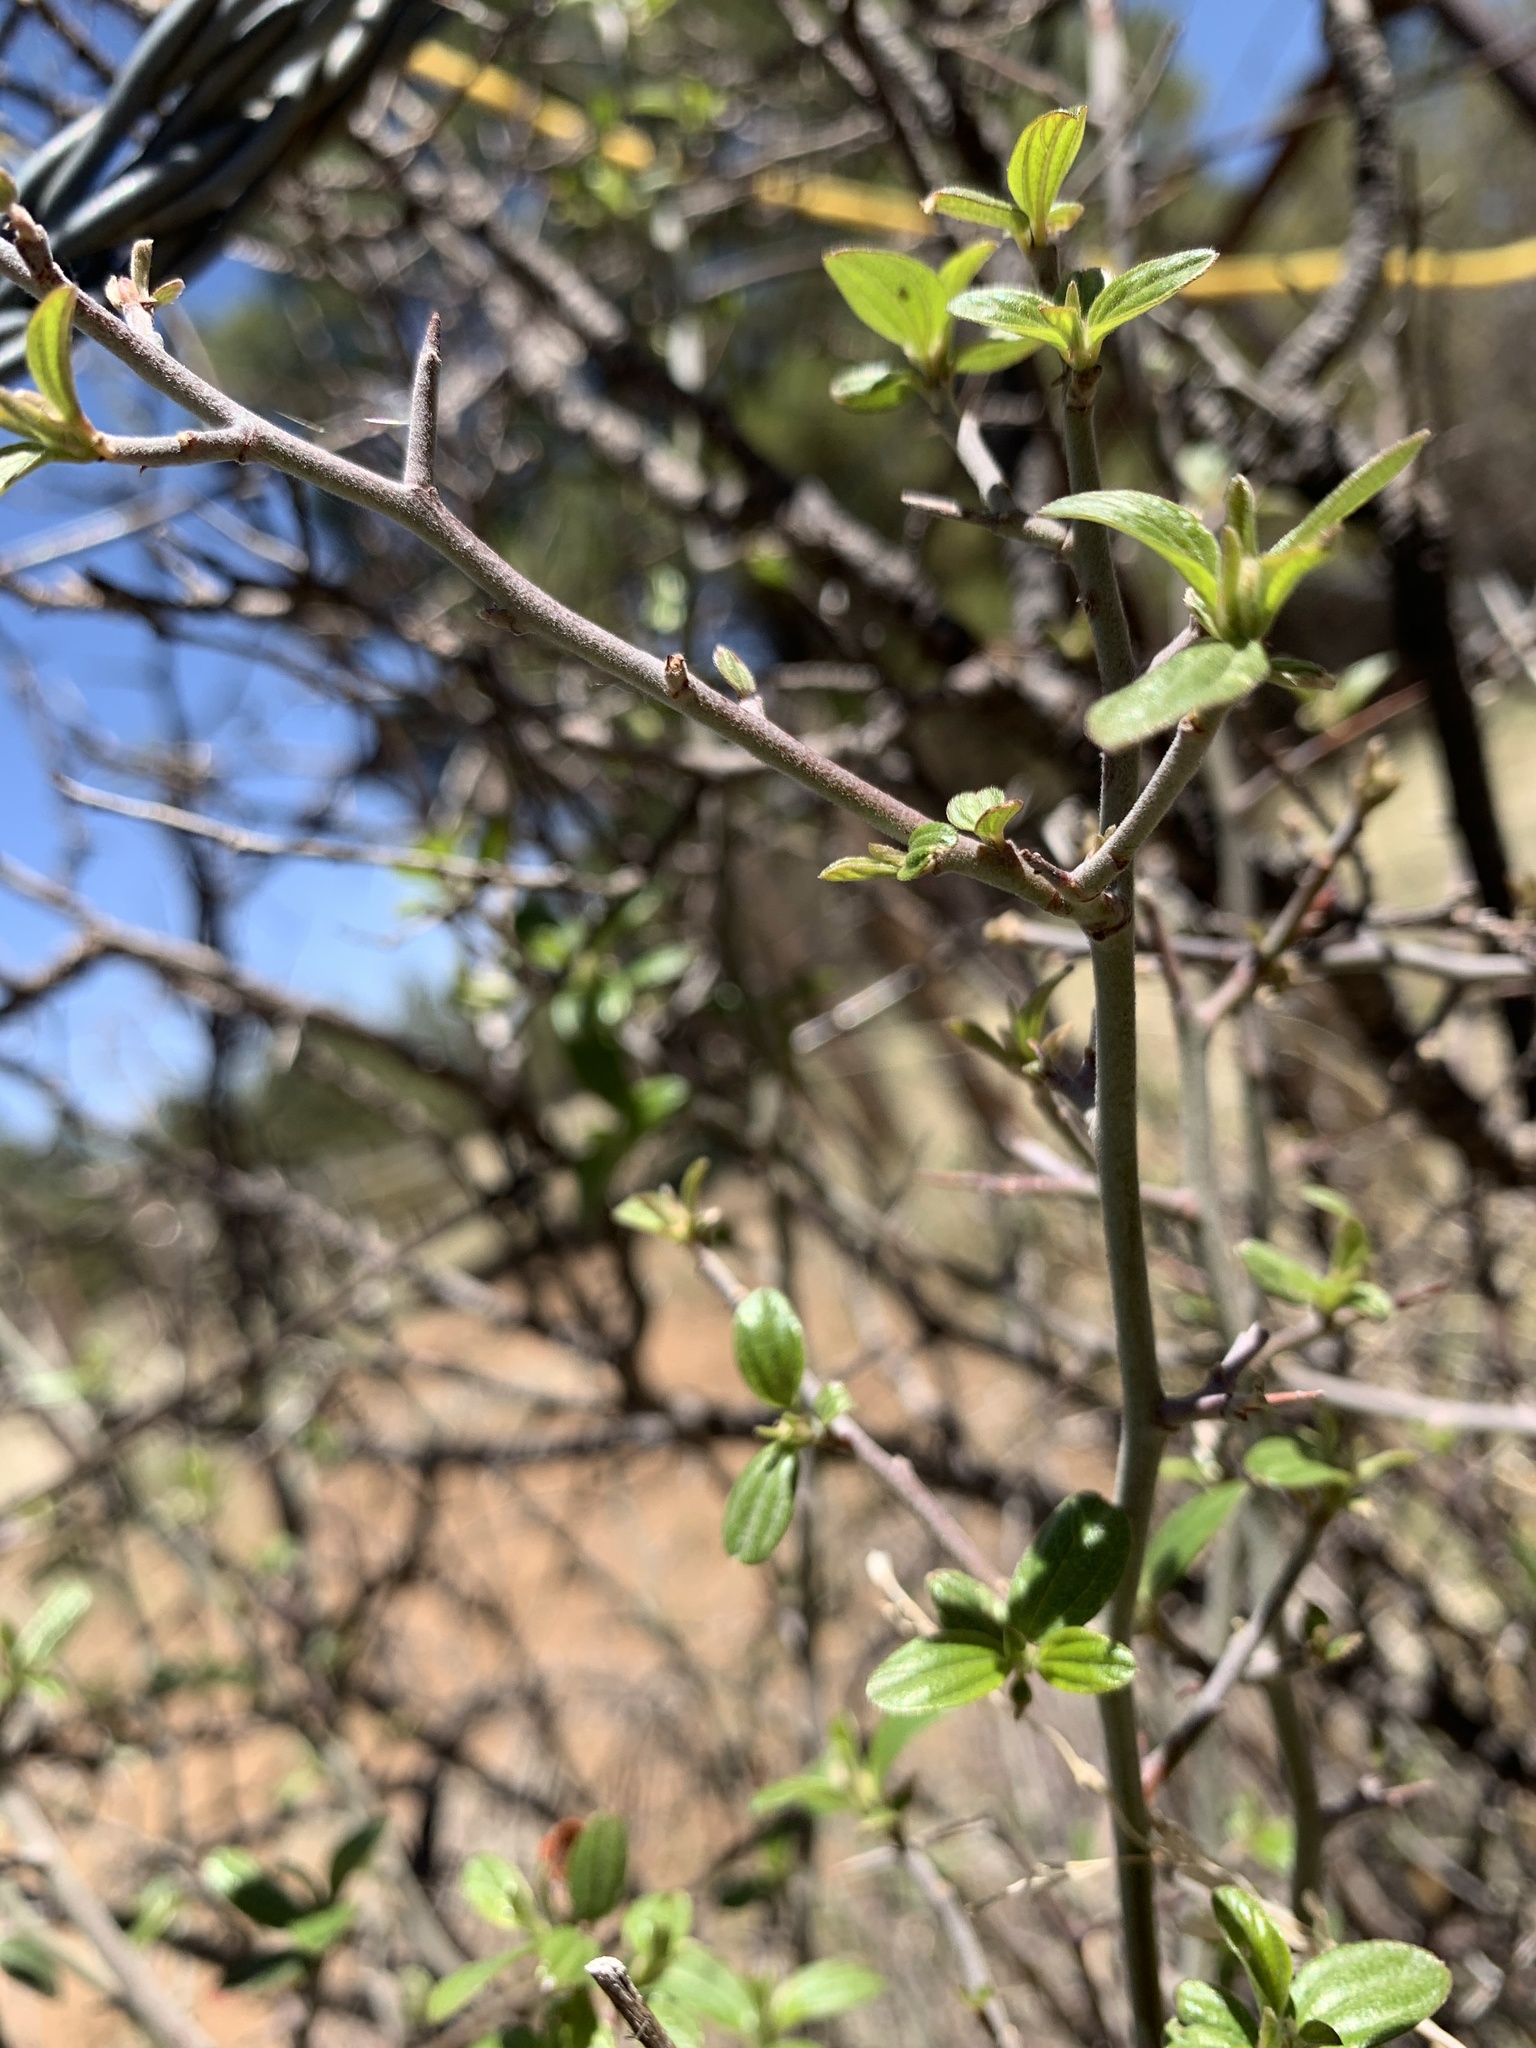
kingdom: Plantae
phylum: Tracheophyta
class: Magnoliopsida
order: Rosales
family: Rhamnaceae
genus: Ceanothus
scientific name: Ceanothus fendleri
